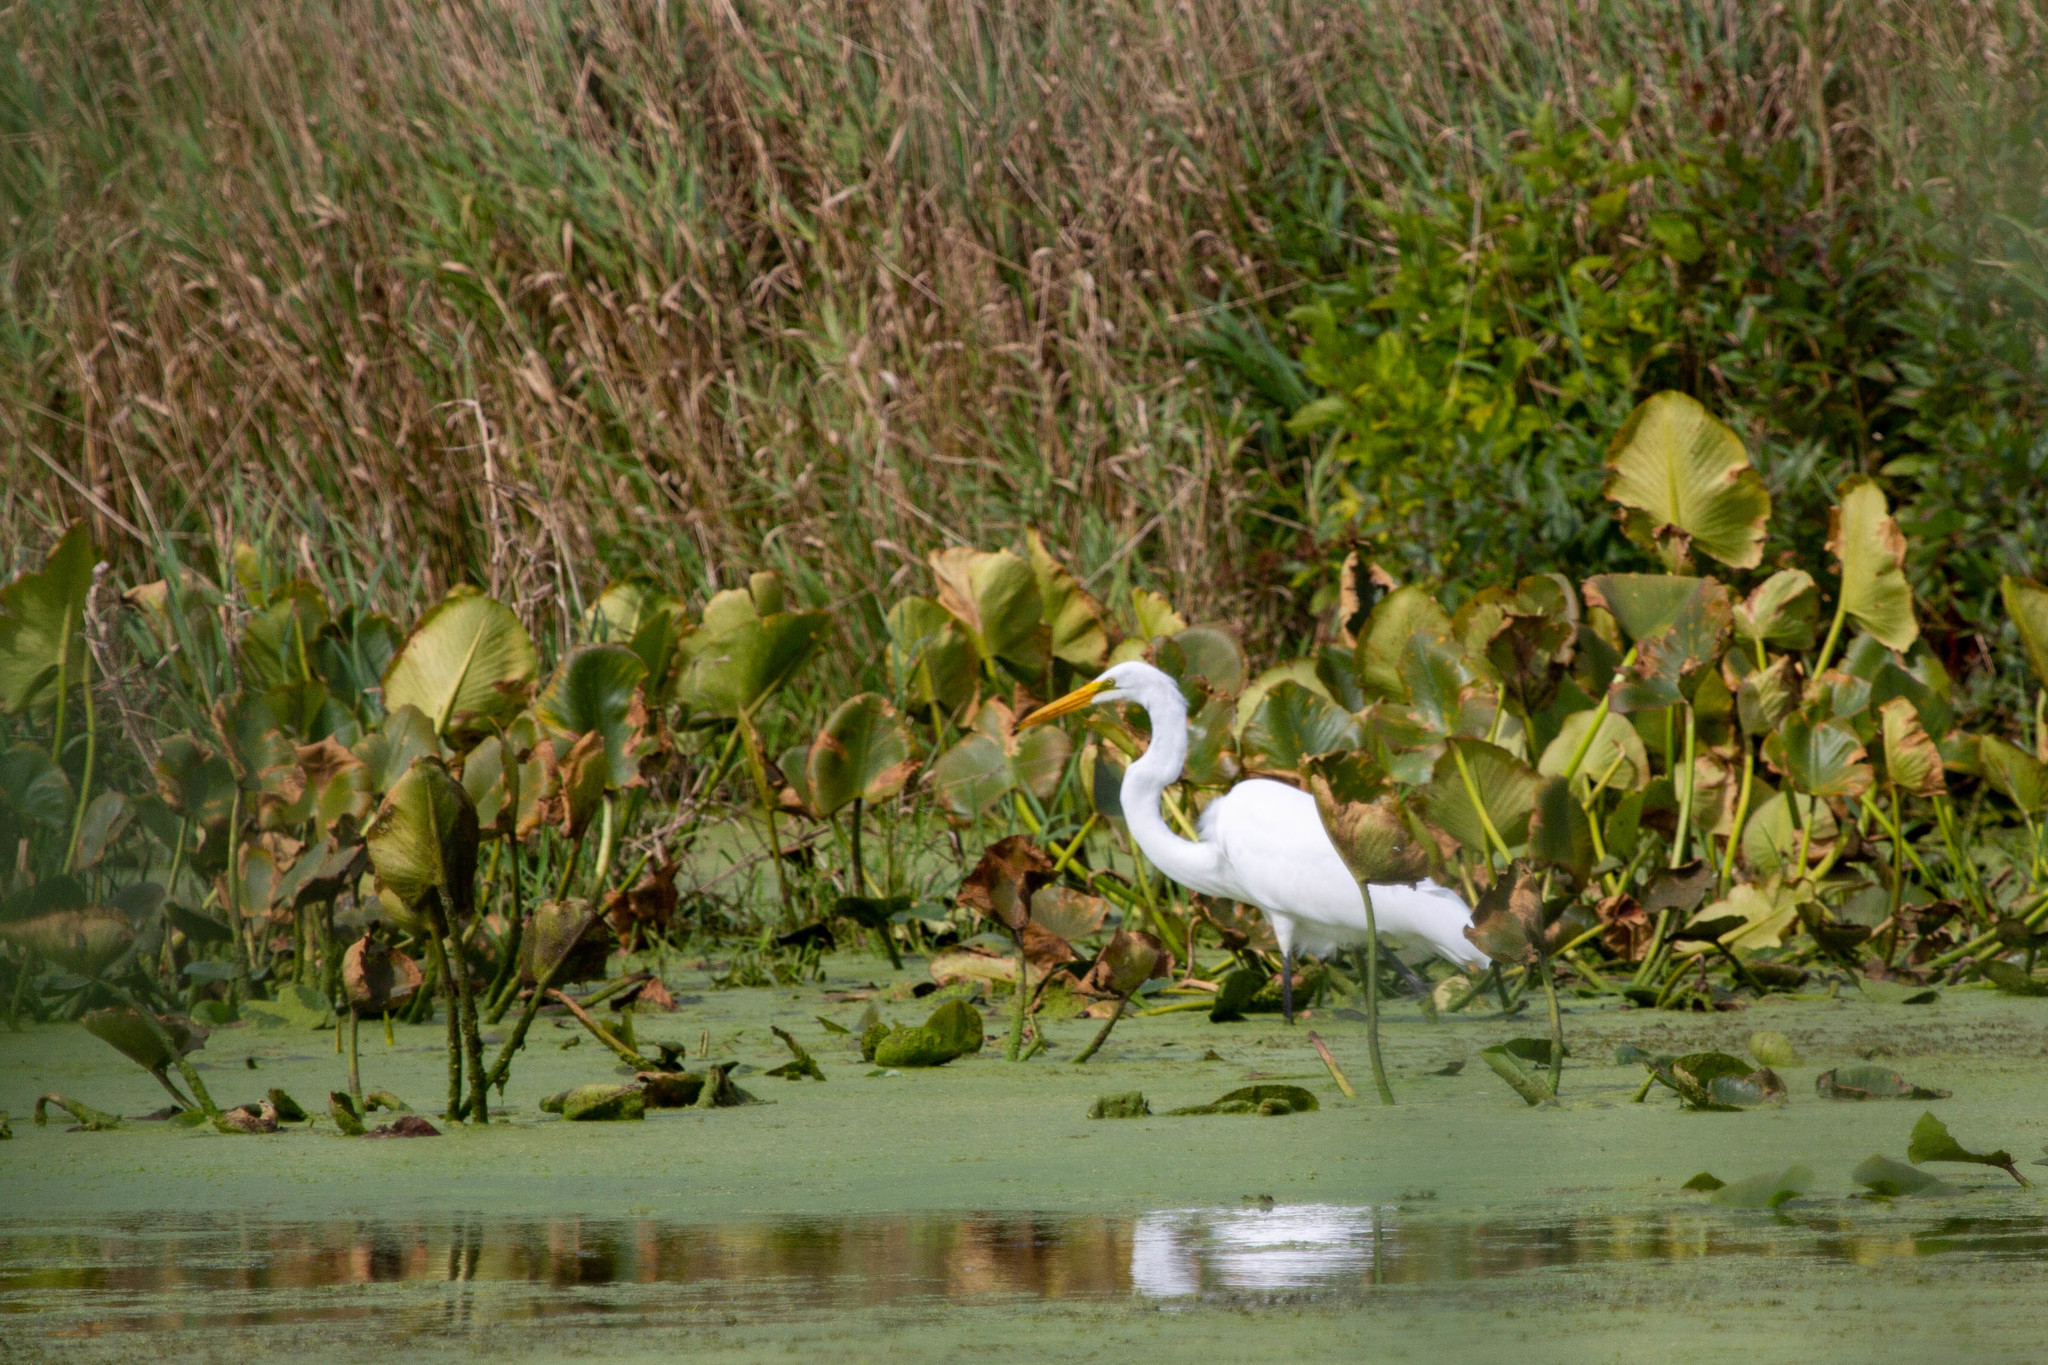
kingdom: Animalia
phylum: Chordata
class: Aves
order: Pelecaniformes
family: Ardeidae
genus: Ardea
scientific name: Ardea alba
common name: Great egret
